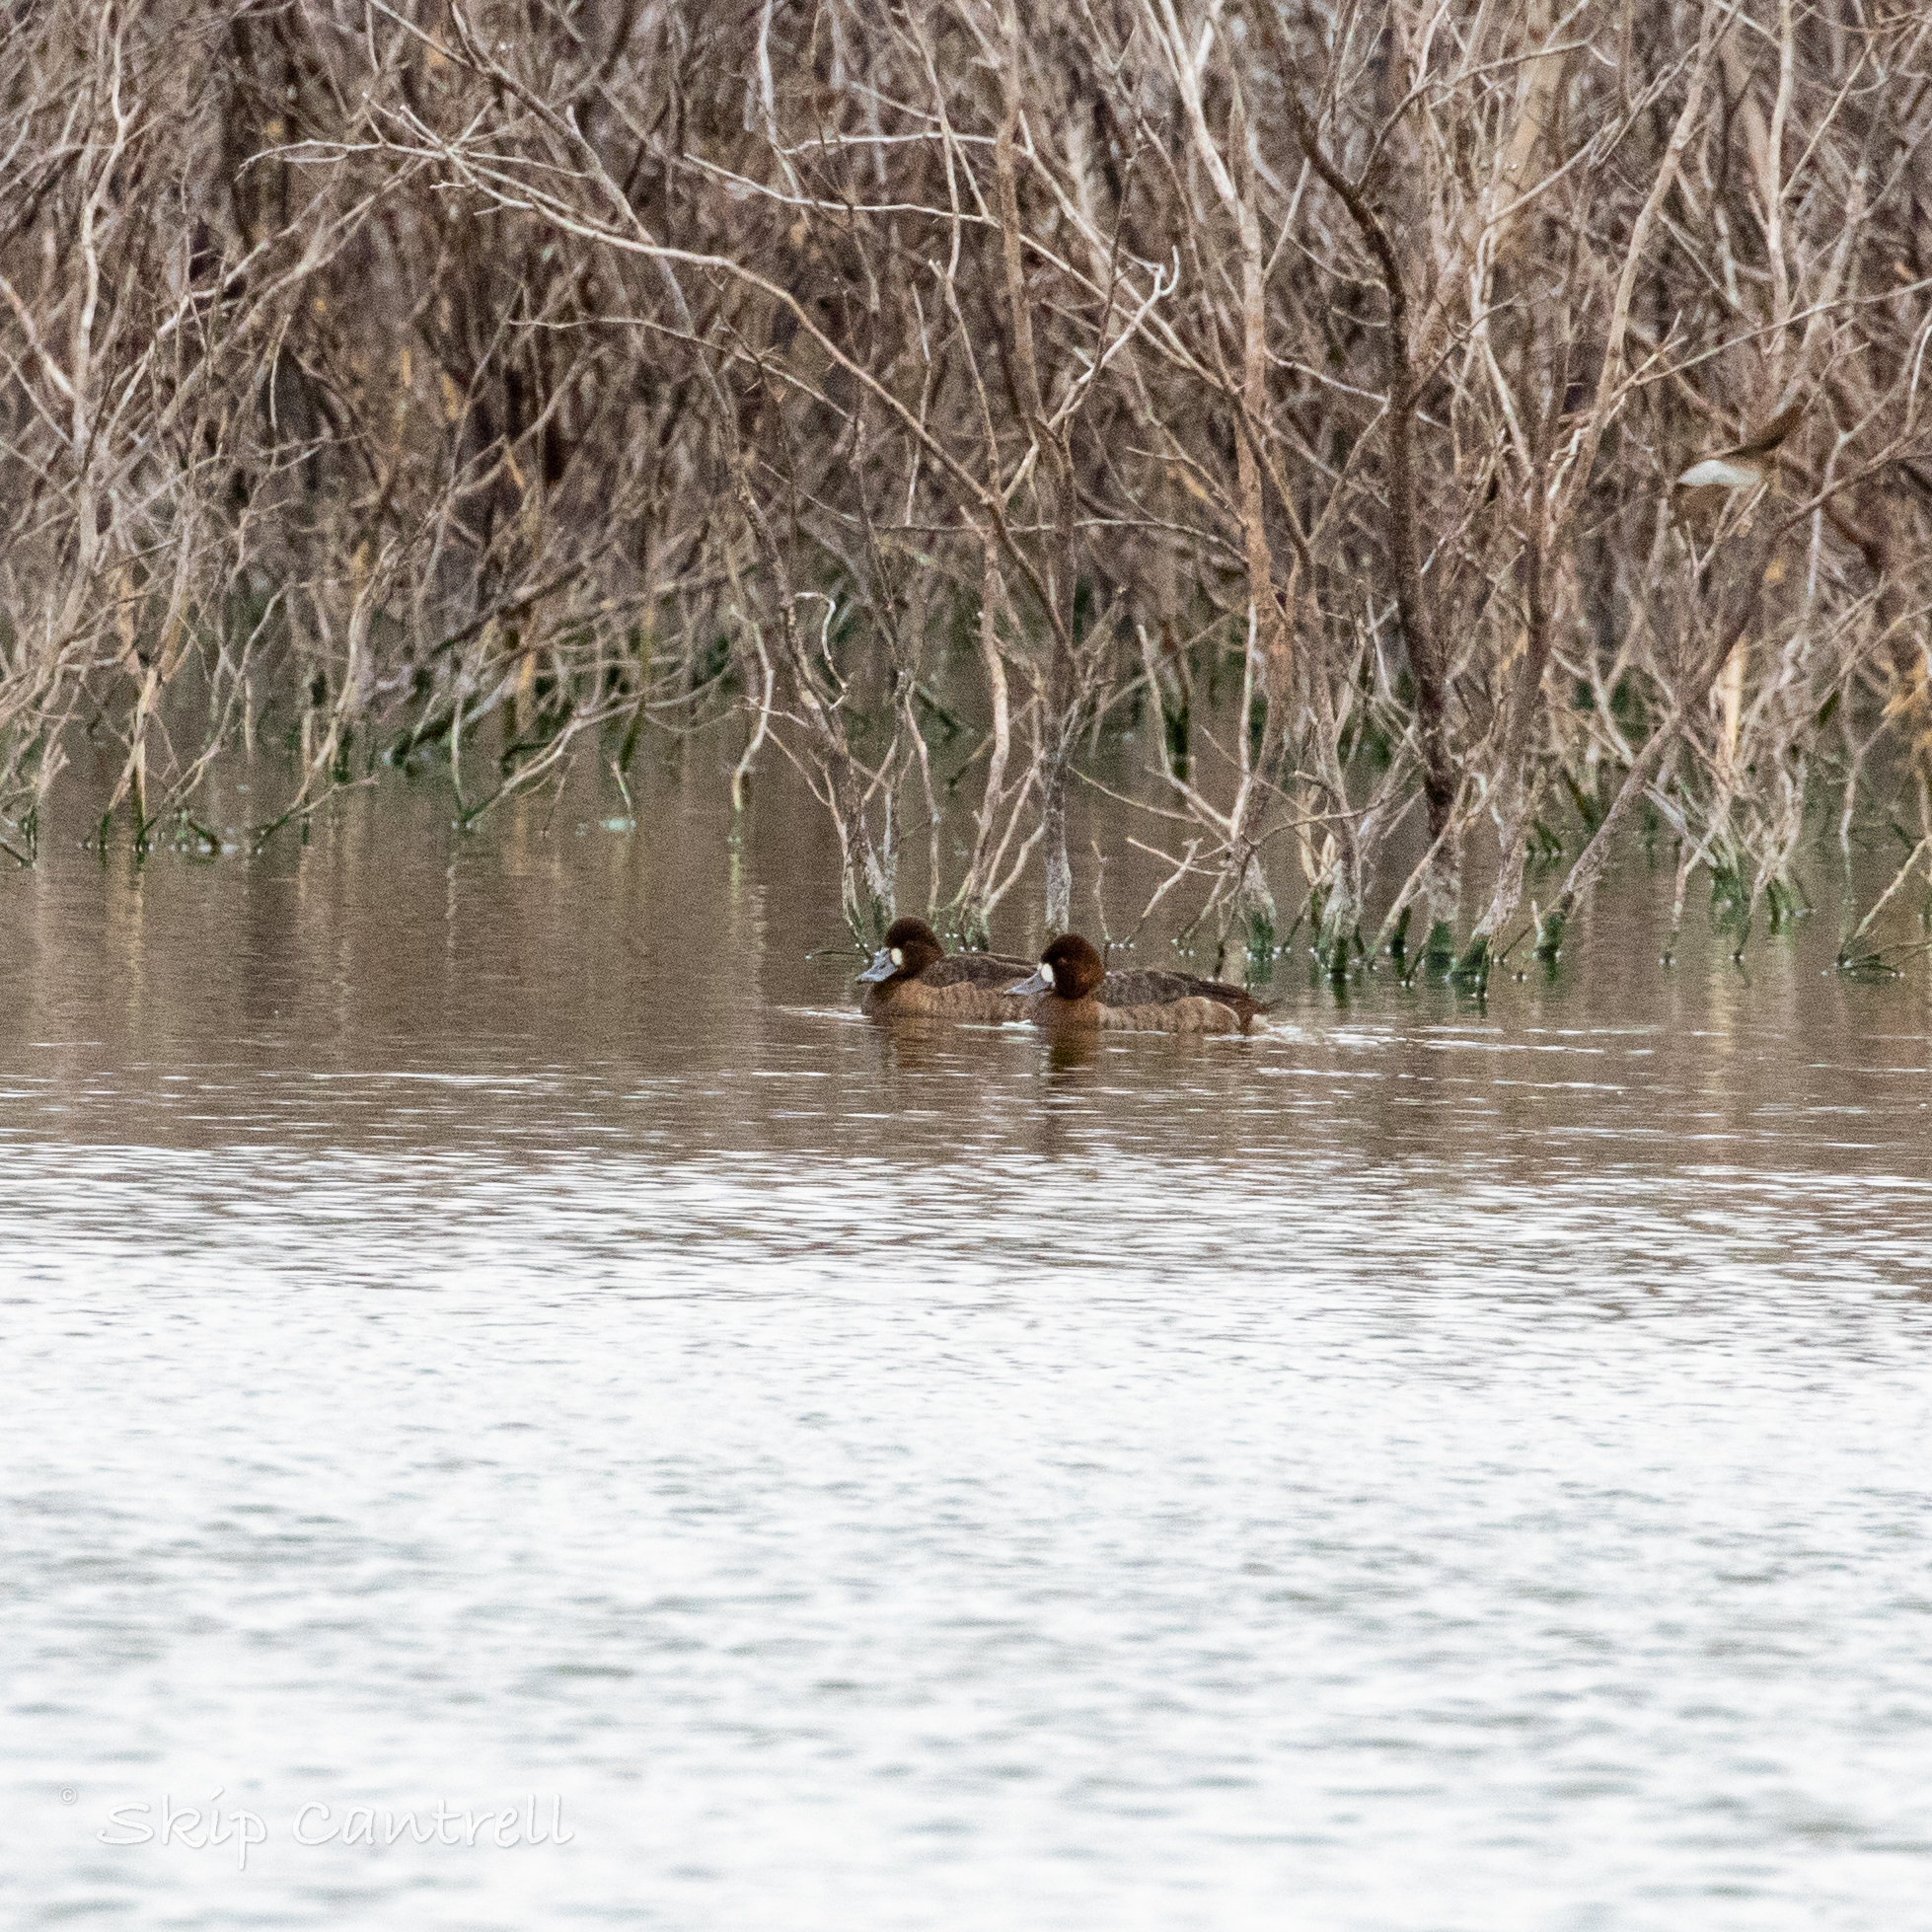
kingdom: Animalia
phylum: Chordata
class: Aves
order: Anseriformes
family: Anatidae
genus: Aythya
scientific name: Aythya marila
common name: Greater scaup
